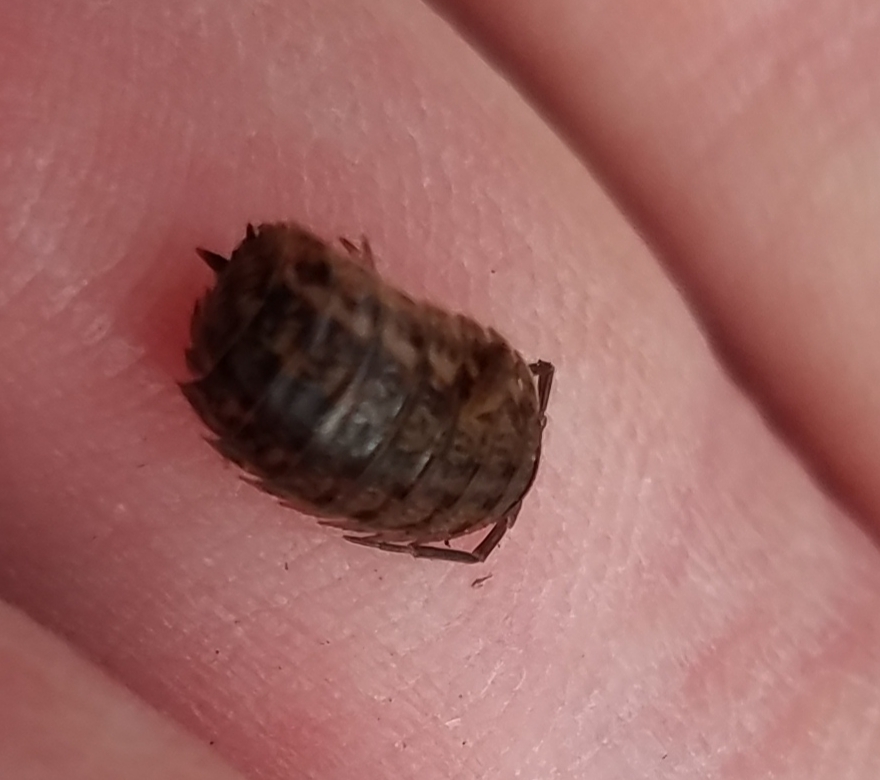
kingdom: Animalia
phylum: Arthropoda
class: Malacostraca
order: Isopoda
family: Trachelipodidae
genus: Trachelipus
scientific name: Trachelipus rathkii
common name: Isopod
